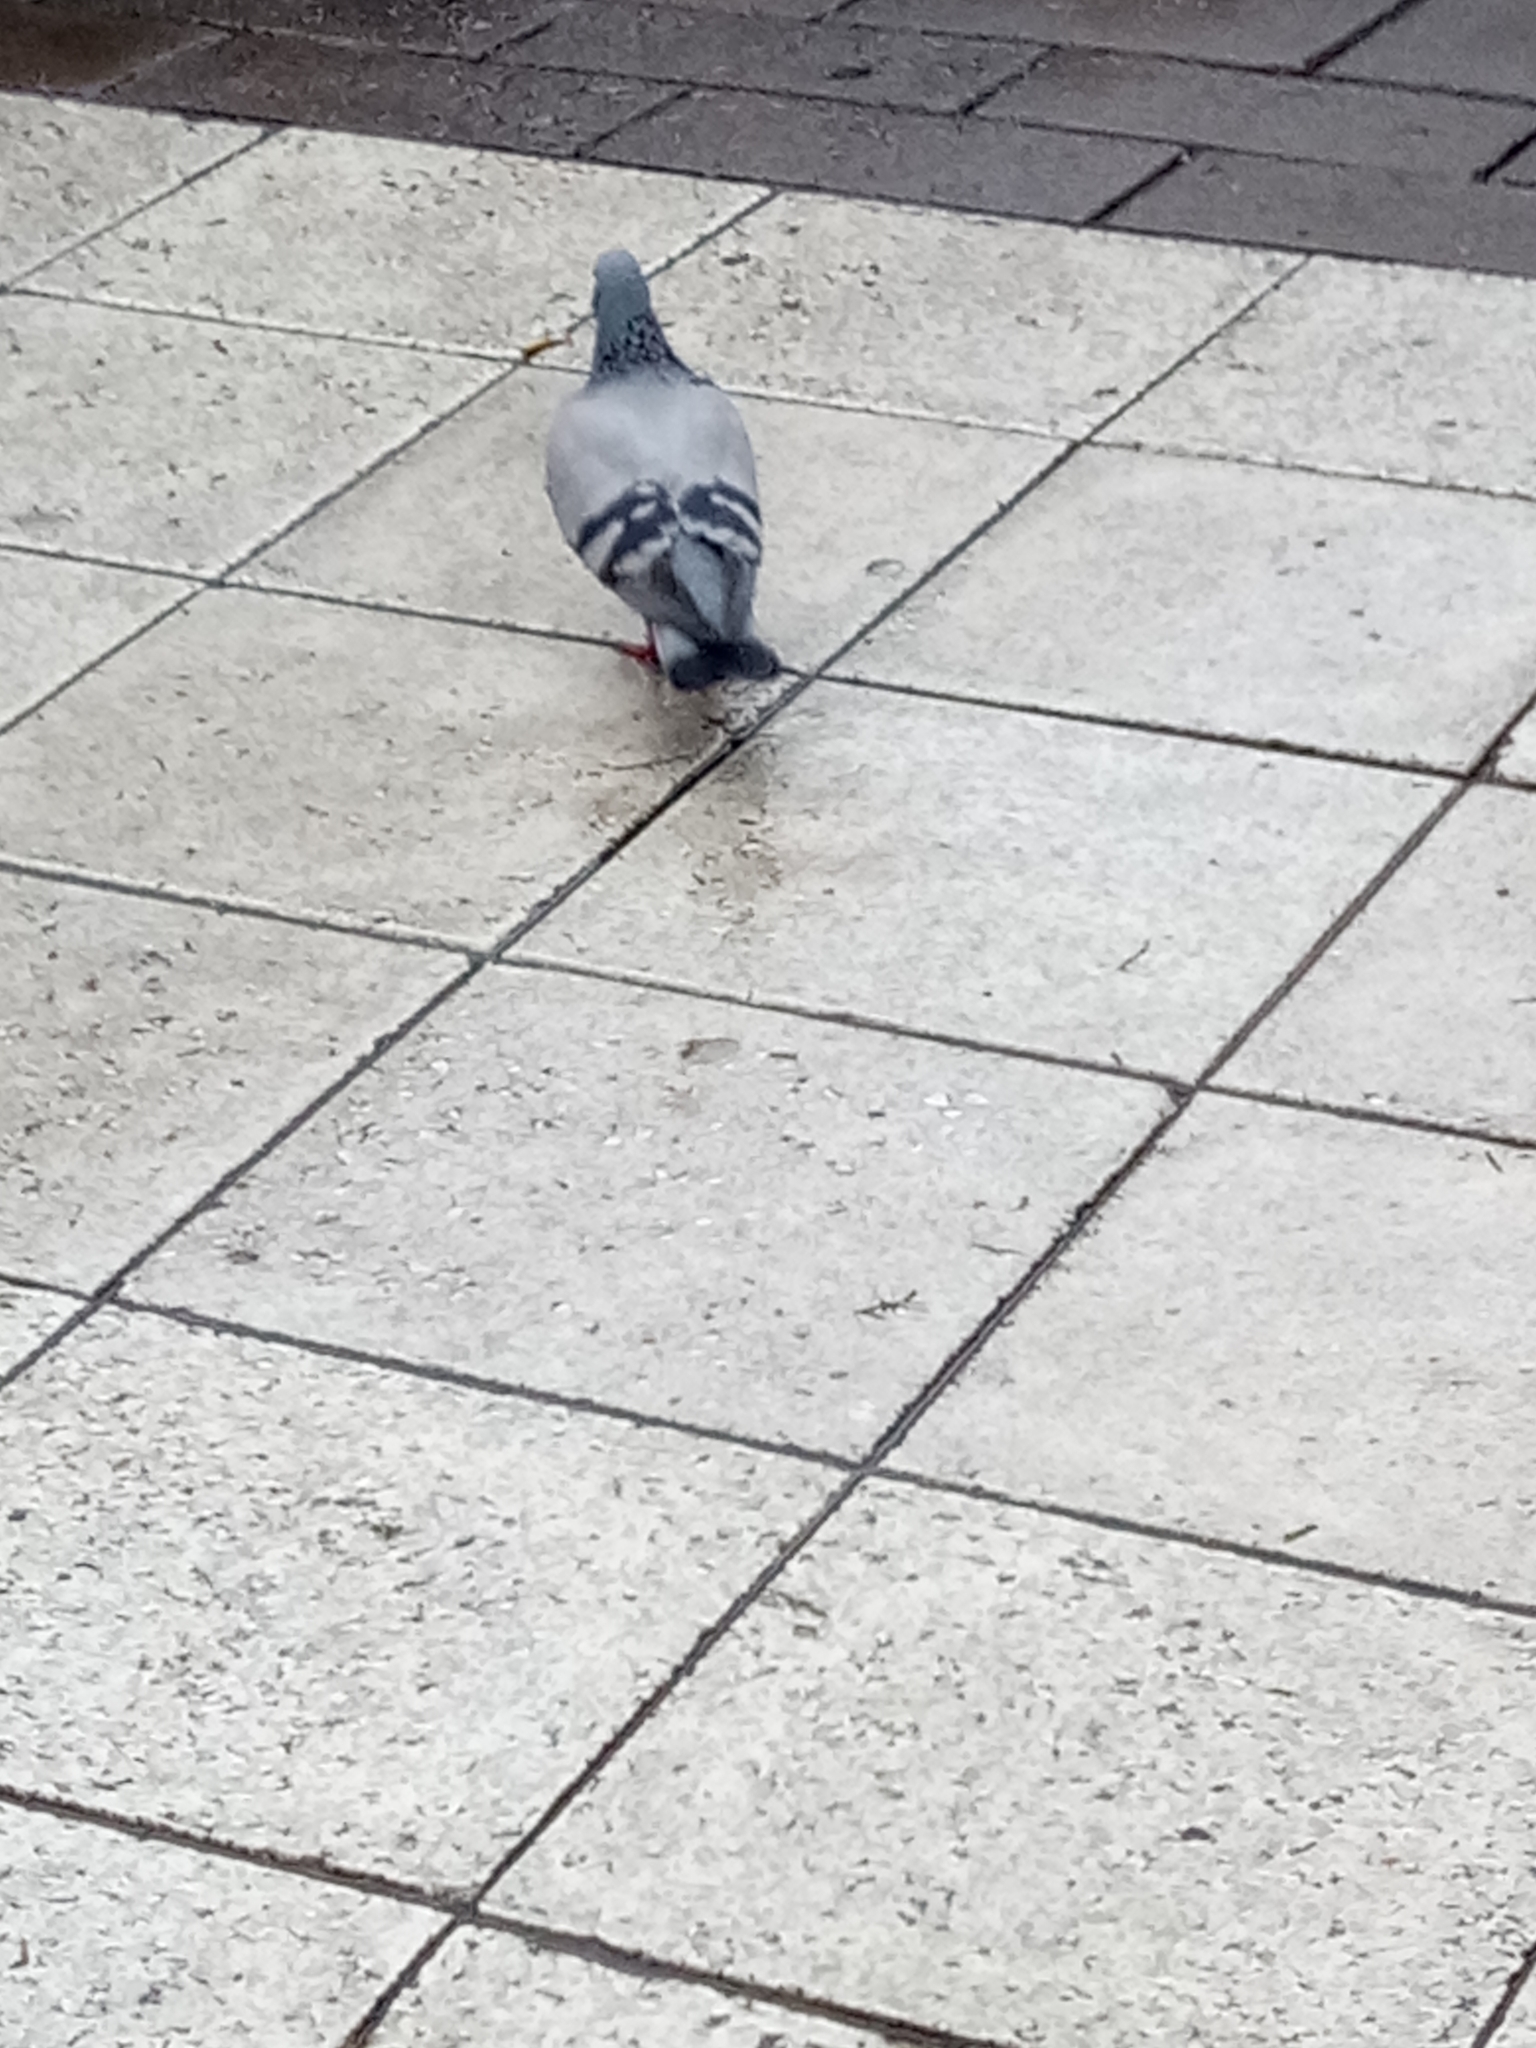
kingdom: Animalia
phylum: Chordata
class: Aves
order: Columbiformes
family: Columbidae
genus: Columba
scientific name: Columba livia
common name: Rock pigeon
